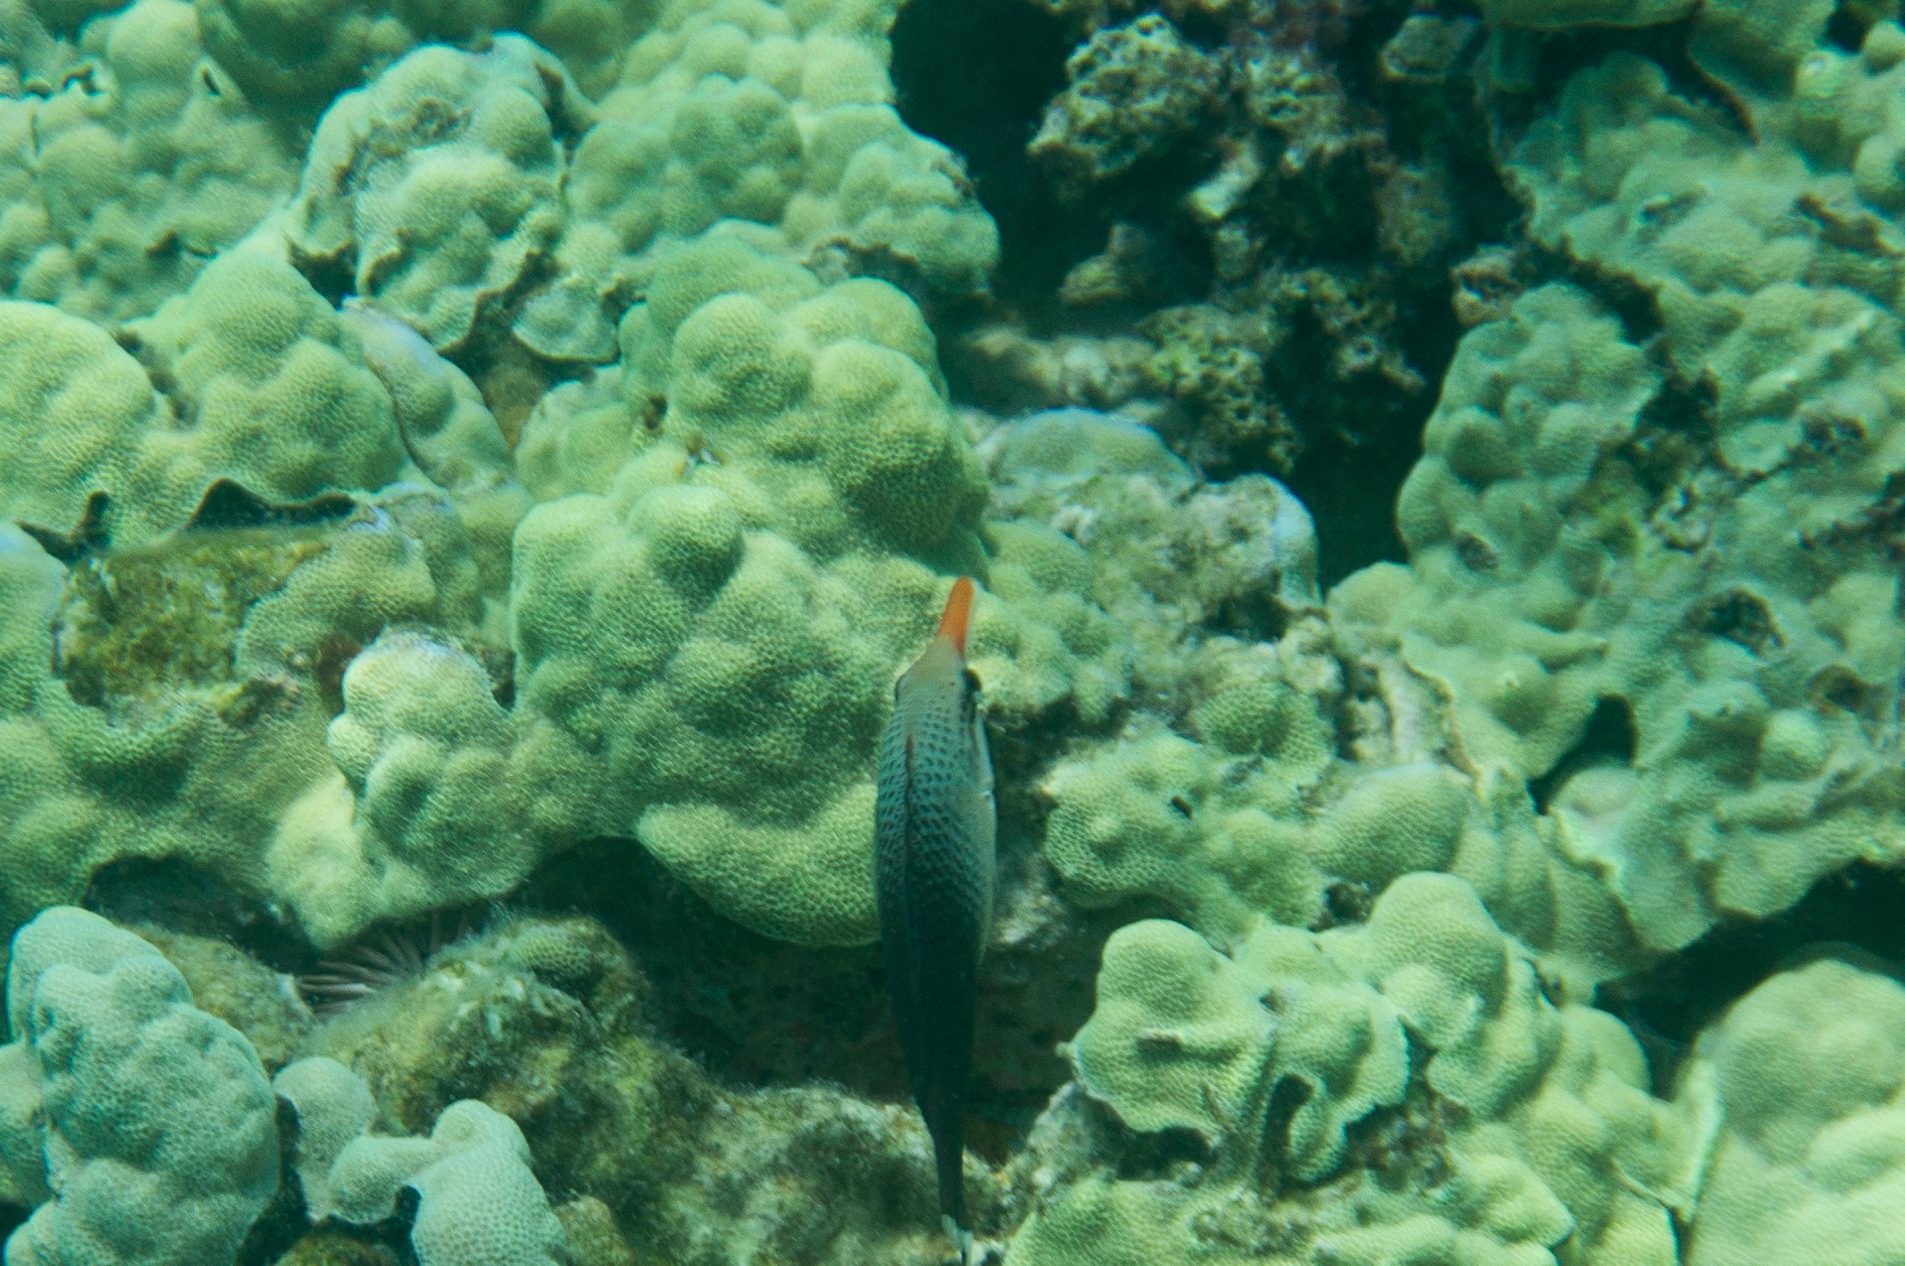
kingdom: Animalia
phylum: Chordata
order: Perciformes
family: Labridae
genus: Gomphosus
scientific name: Gomphosus varius
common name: Bird wrasse
